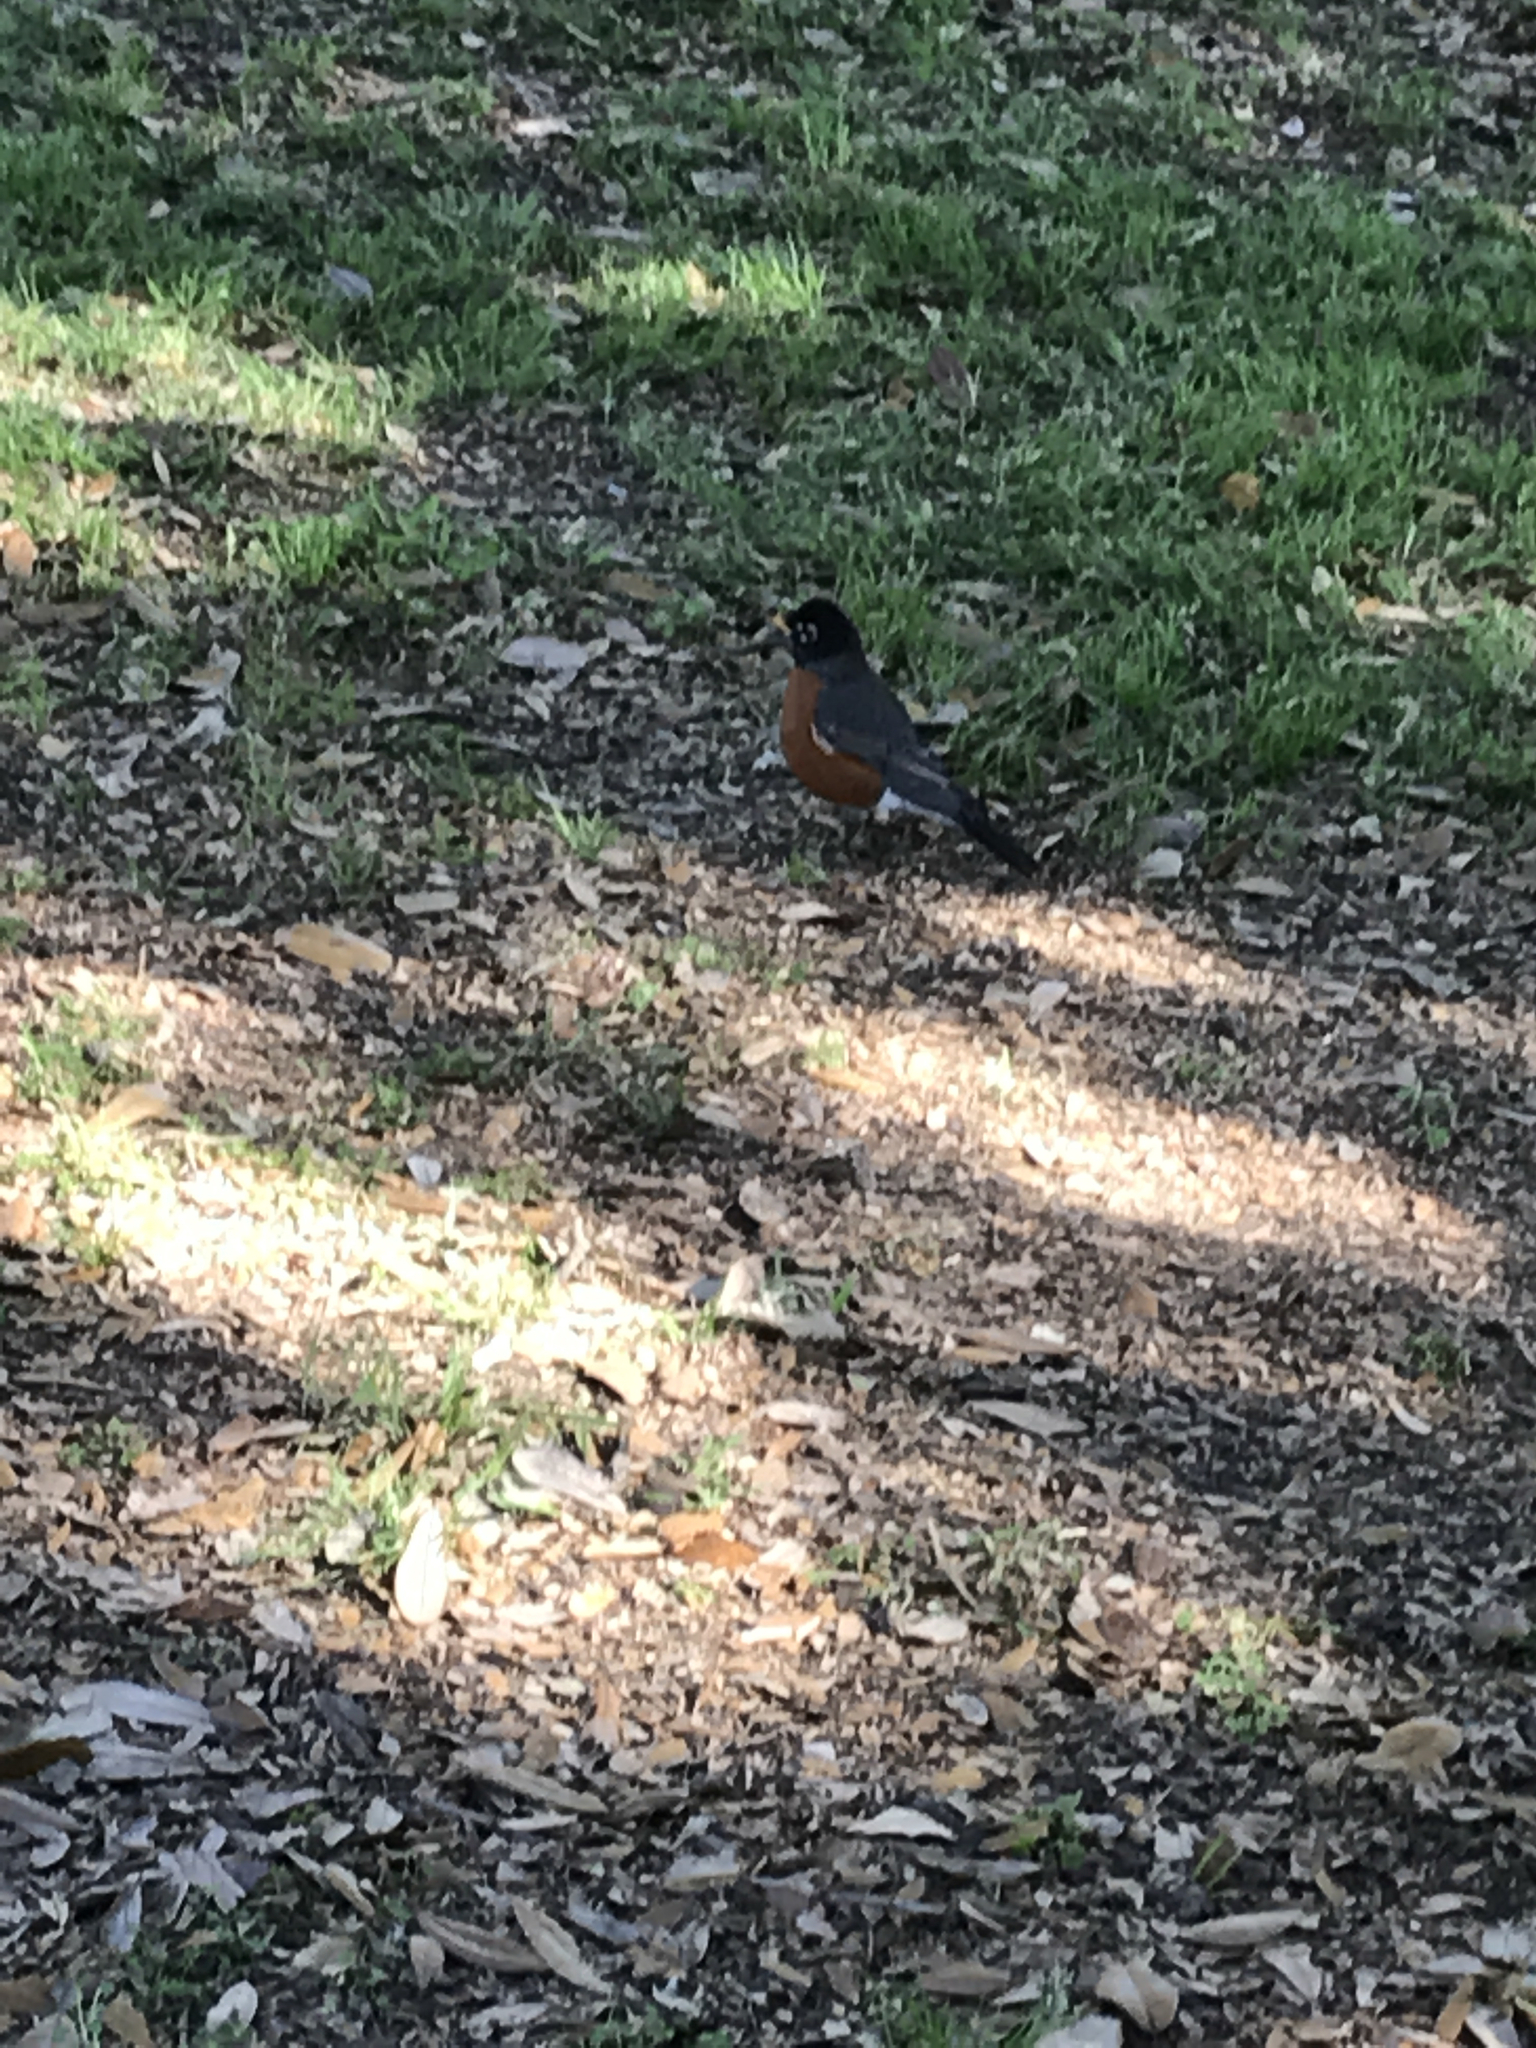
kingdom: Animalia
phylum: Chordata
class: Aves
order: Passeriformes
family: Turdidae
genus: Turdus
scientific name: Turdus migratorius
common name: American robin
